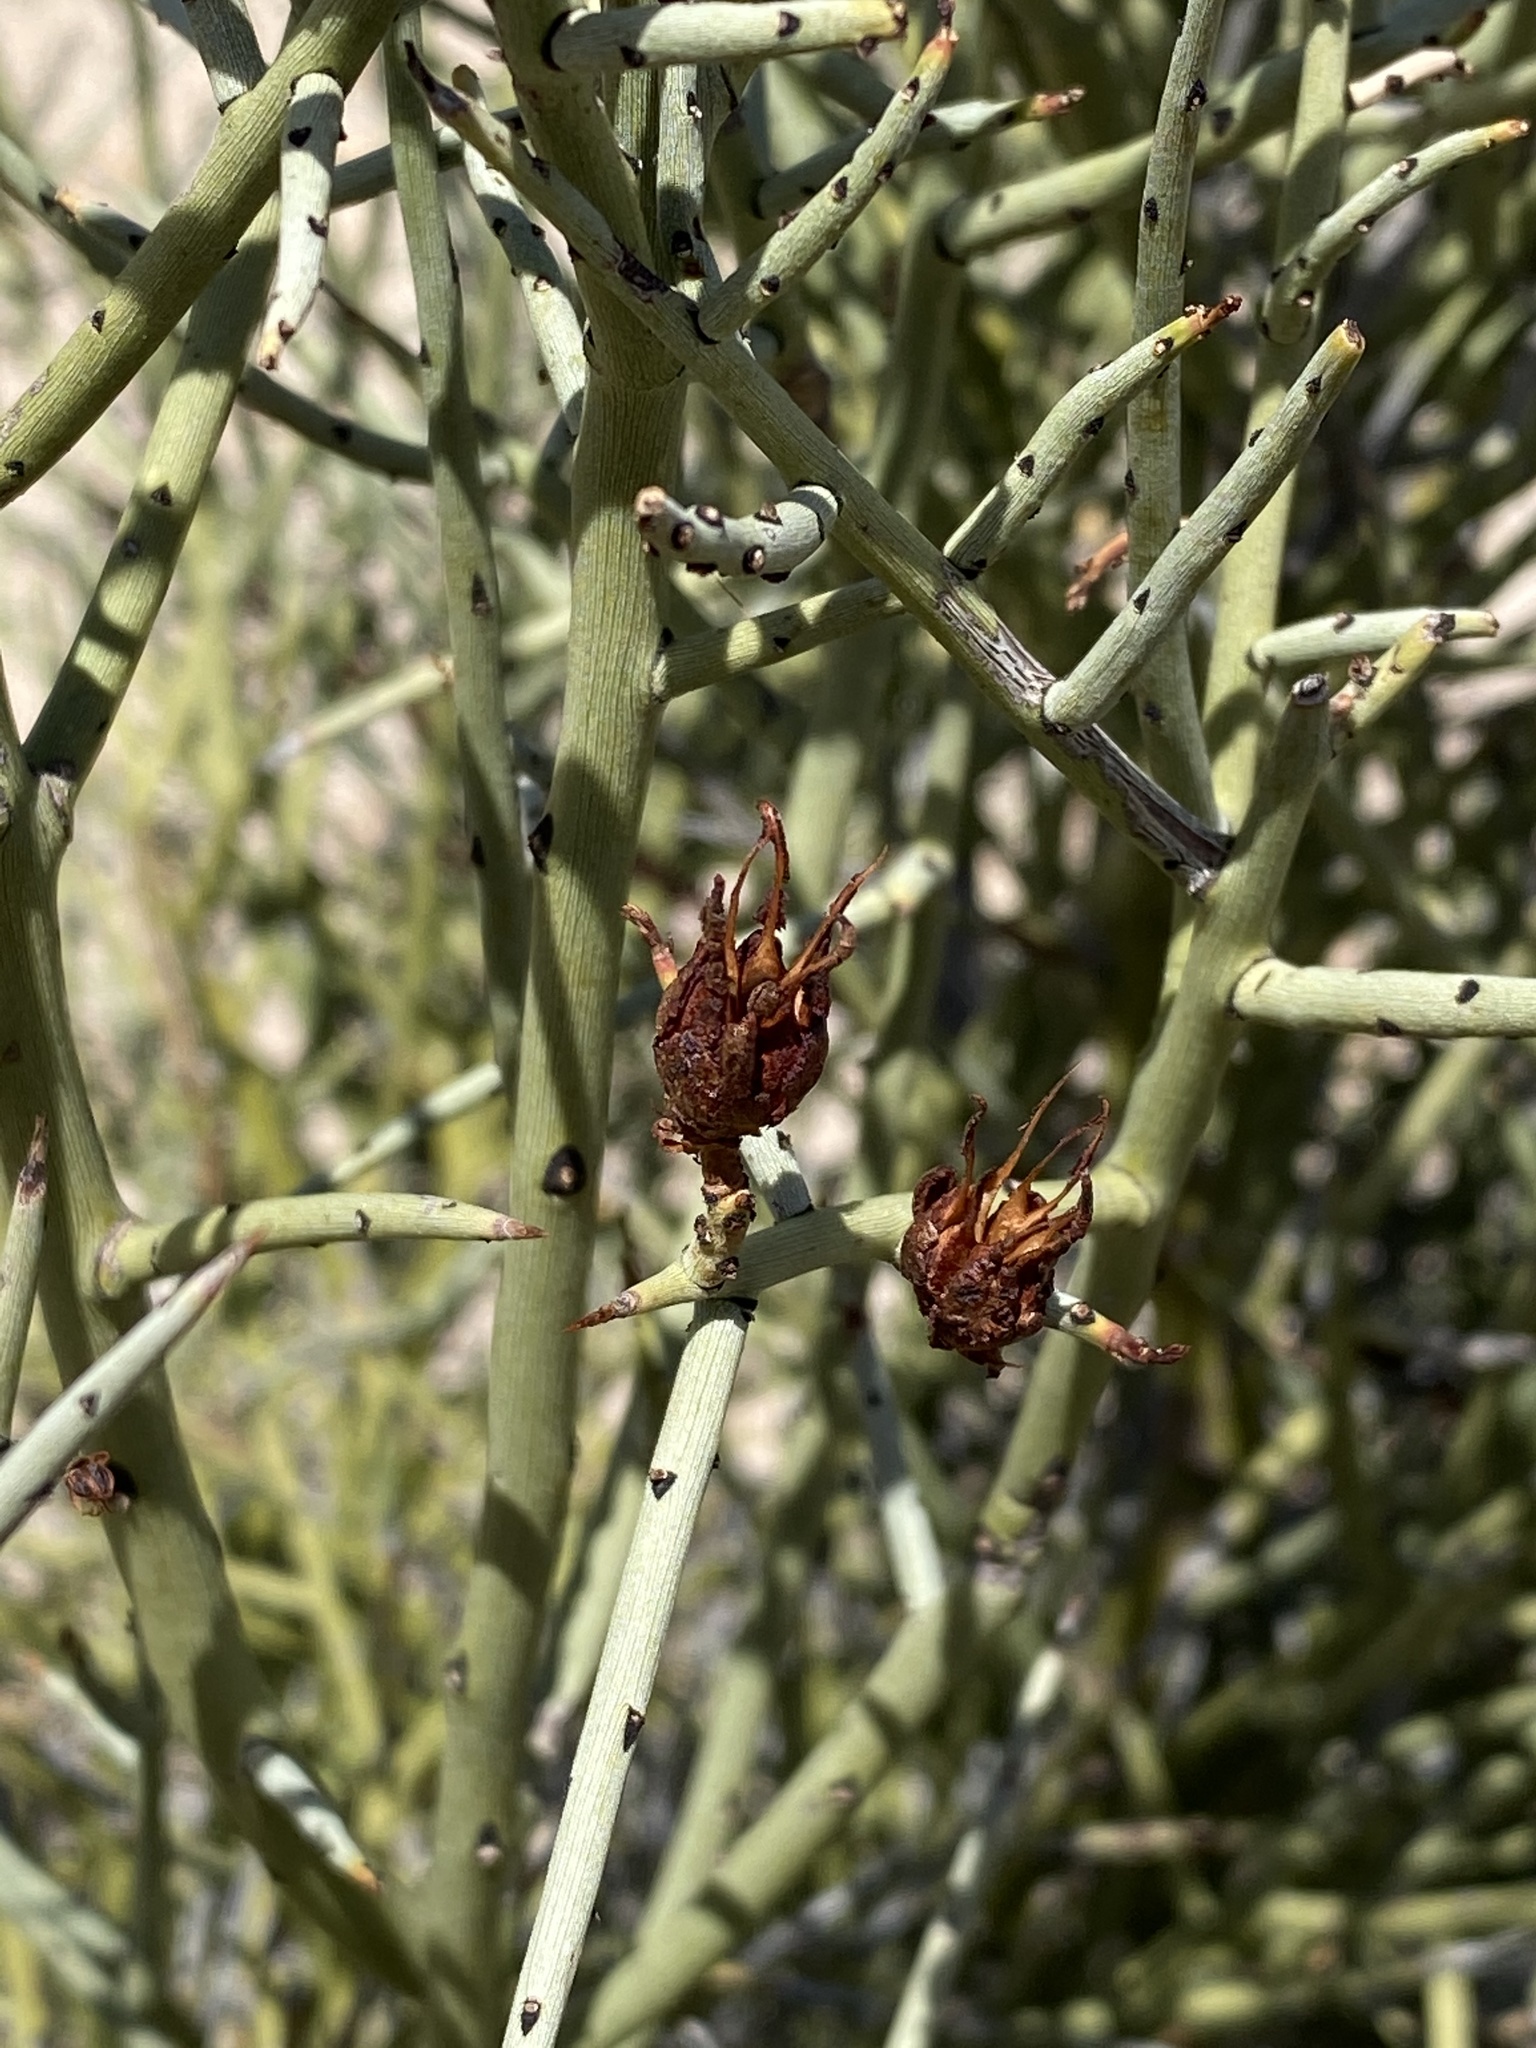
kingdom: Plantae
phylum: Tracheophyta
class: Magnoliopsida
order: Celastrales
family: Celastraceae
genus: Canotia
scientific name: Canotia holacantha
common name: Crucifixion thorns
